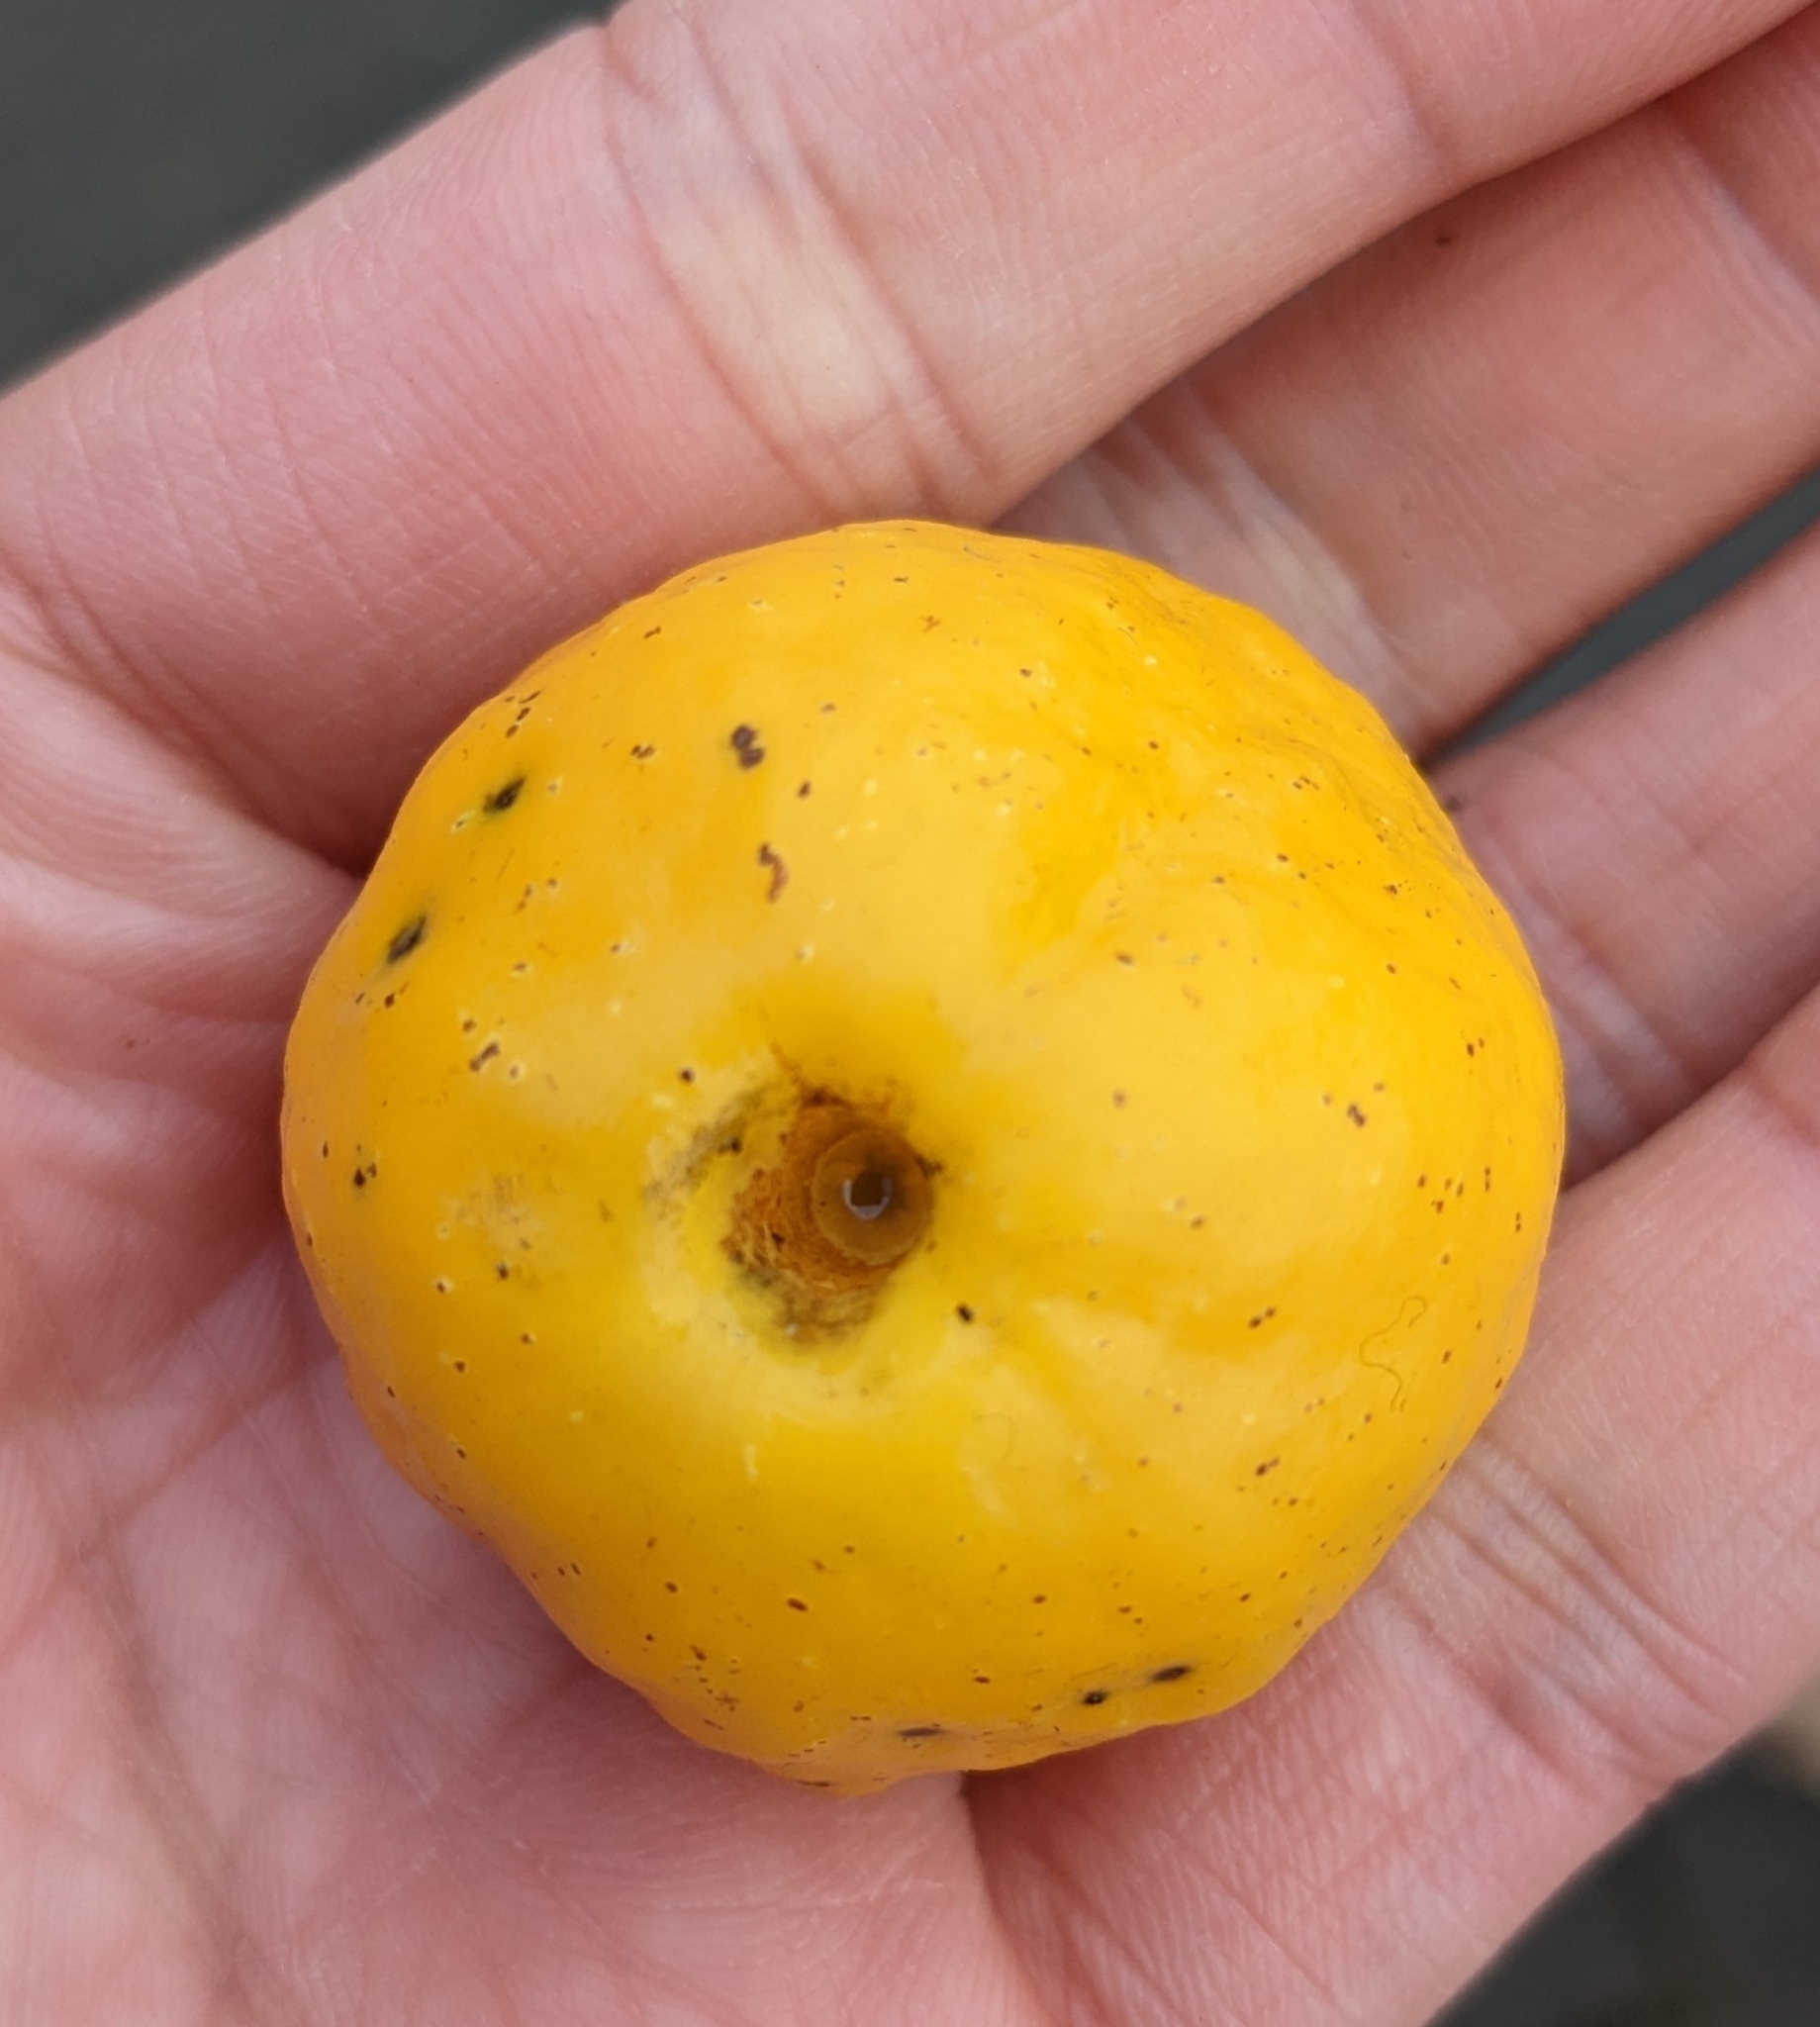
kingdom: Plantae
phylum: Tracheophyta
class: Magnoliopsida
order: Rosales
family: Rosaceae
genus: Chaenomeles
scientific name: Chaenomeles japonica
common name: Japanese quince
